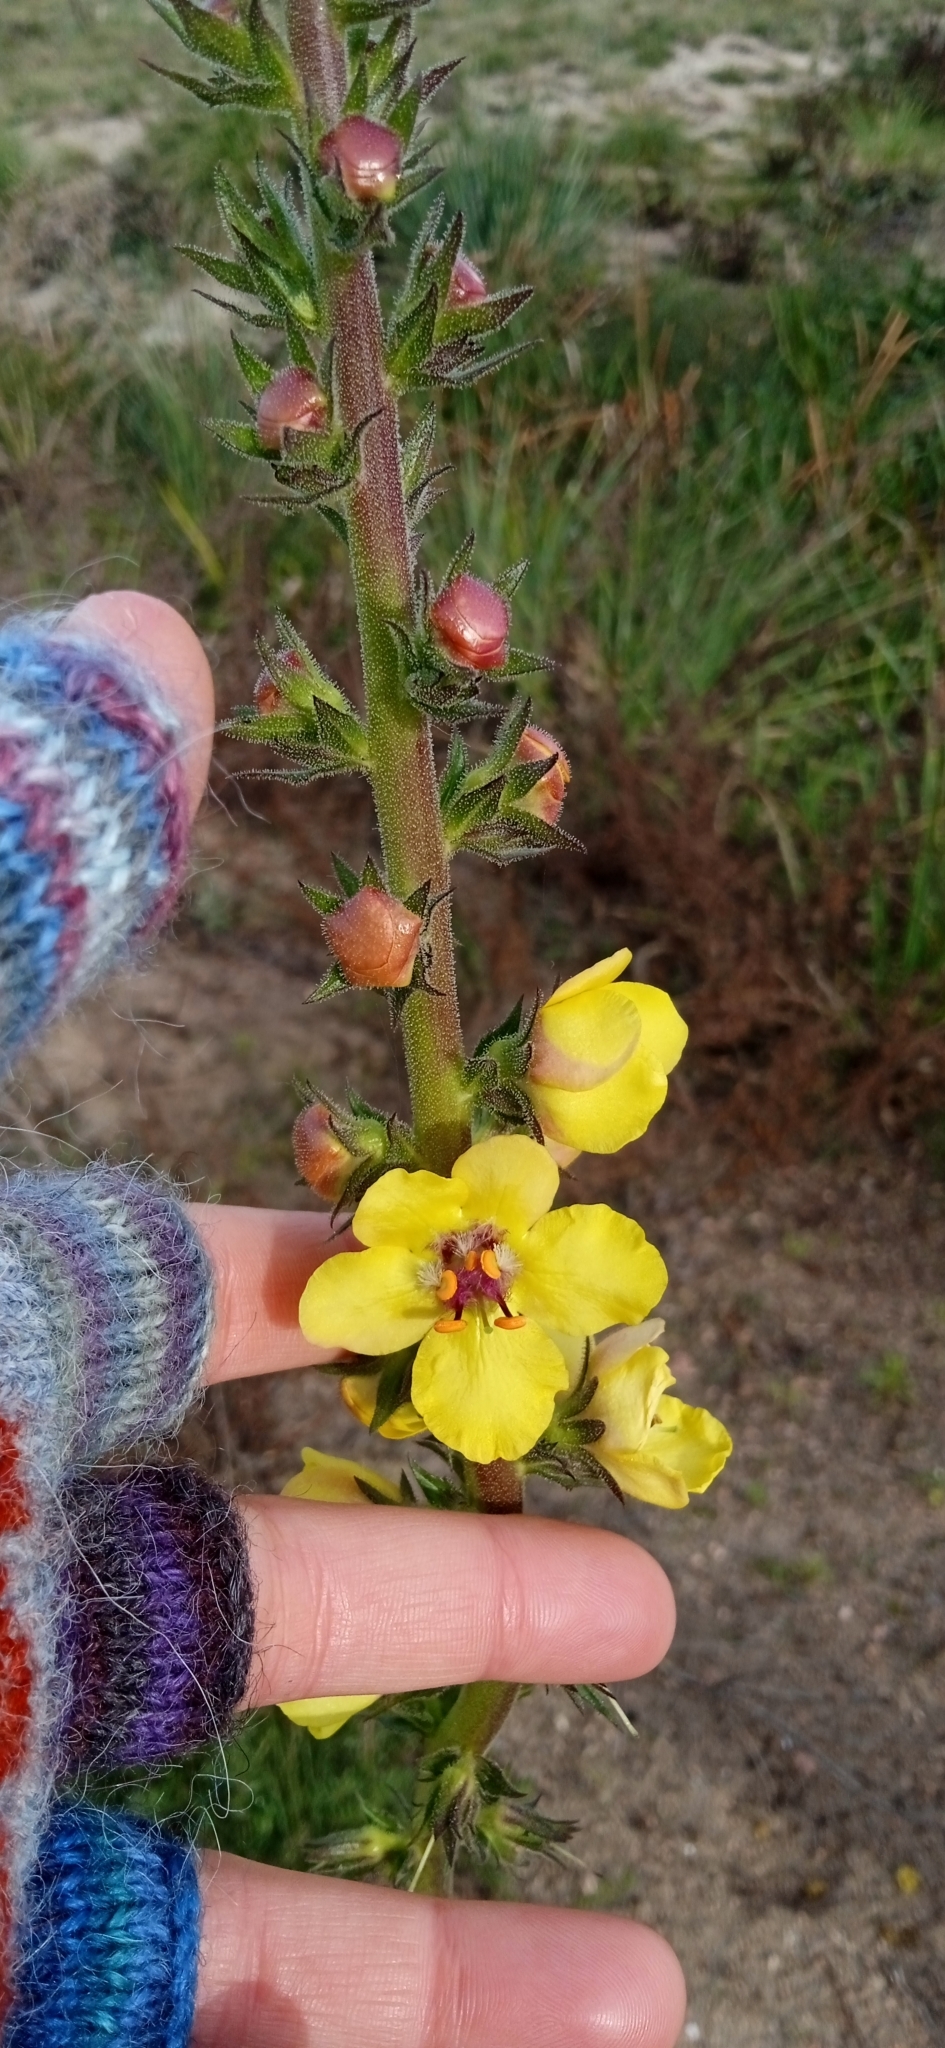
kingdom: Plantae
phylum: Tracheophyta
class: Magnoliopsida
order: Lamiales
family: Scrophulariaceae
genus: Verbascum
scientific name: Verbascum virgatum
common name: Twiggy mullein
